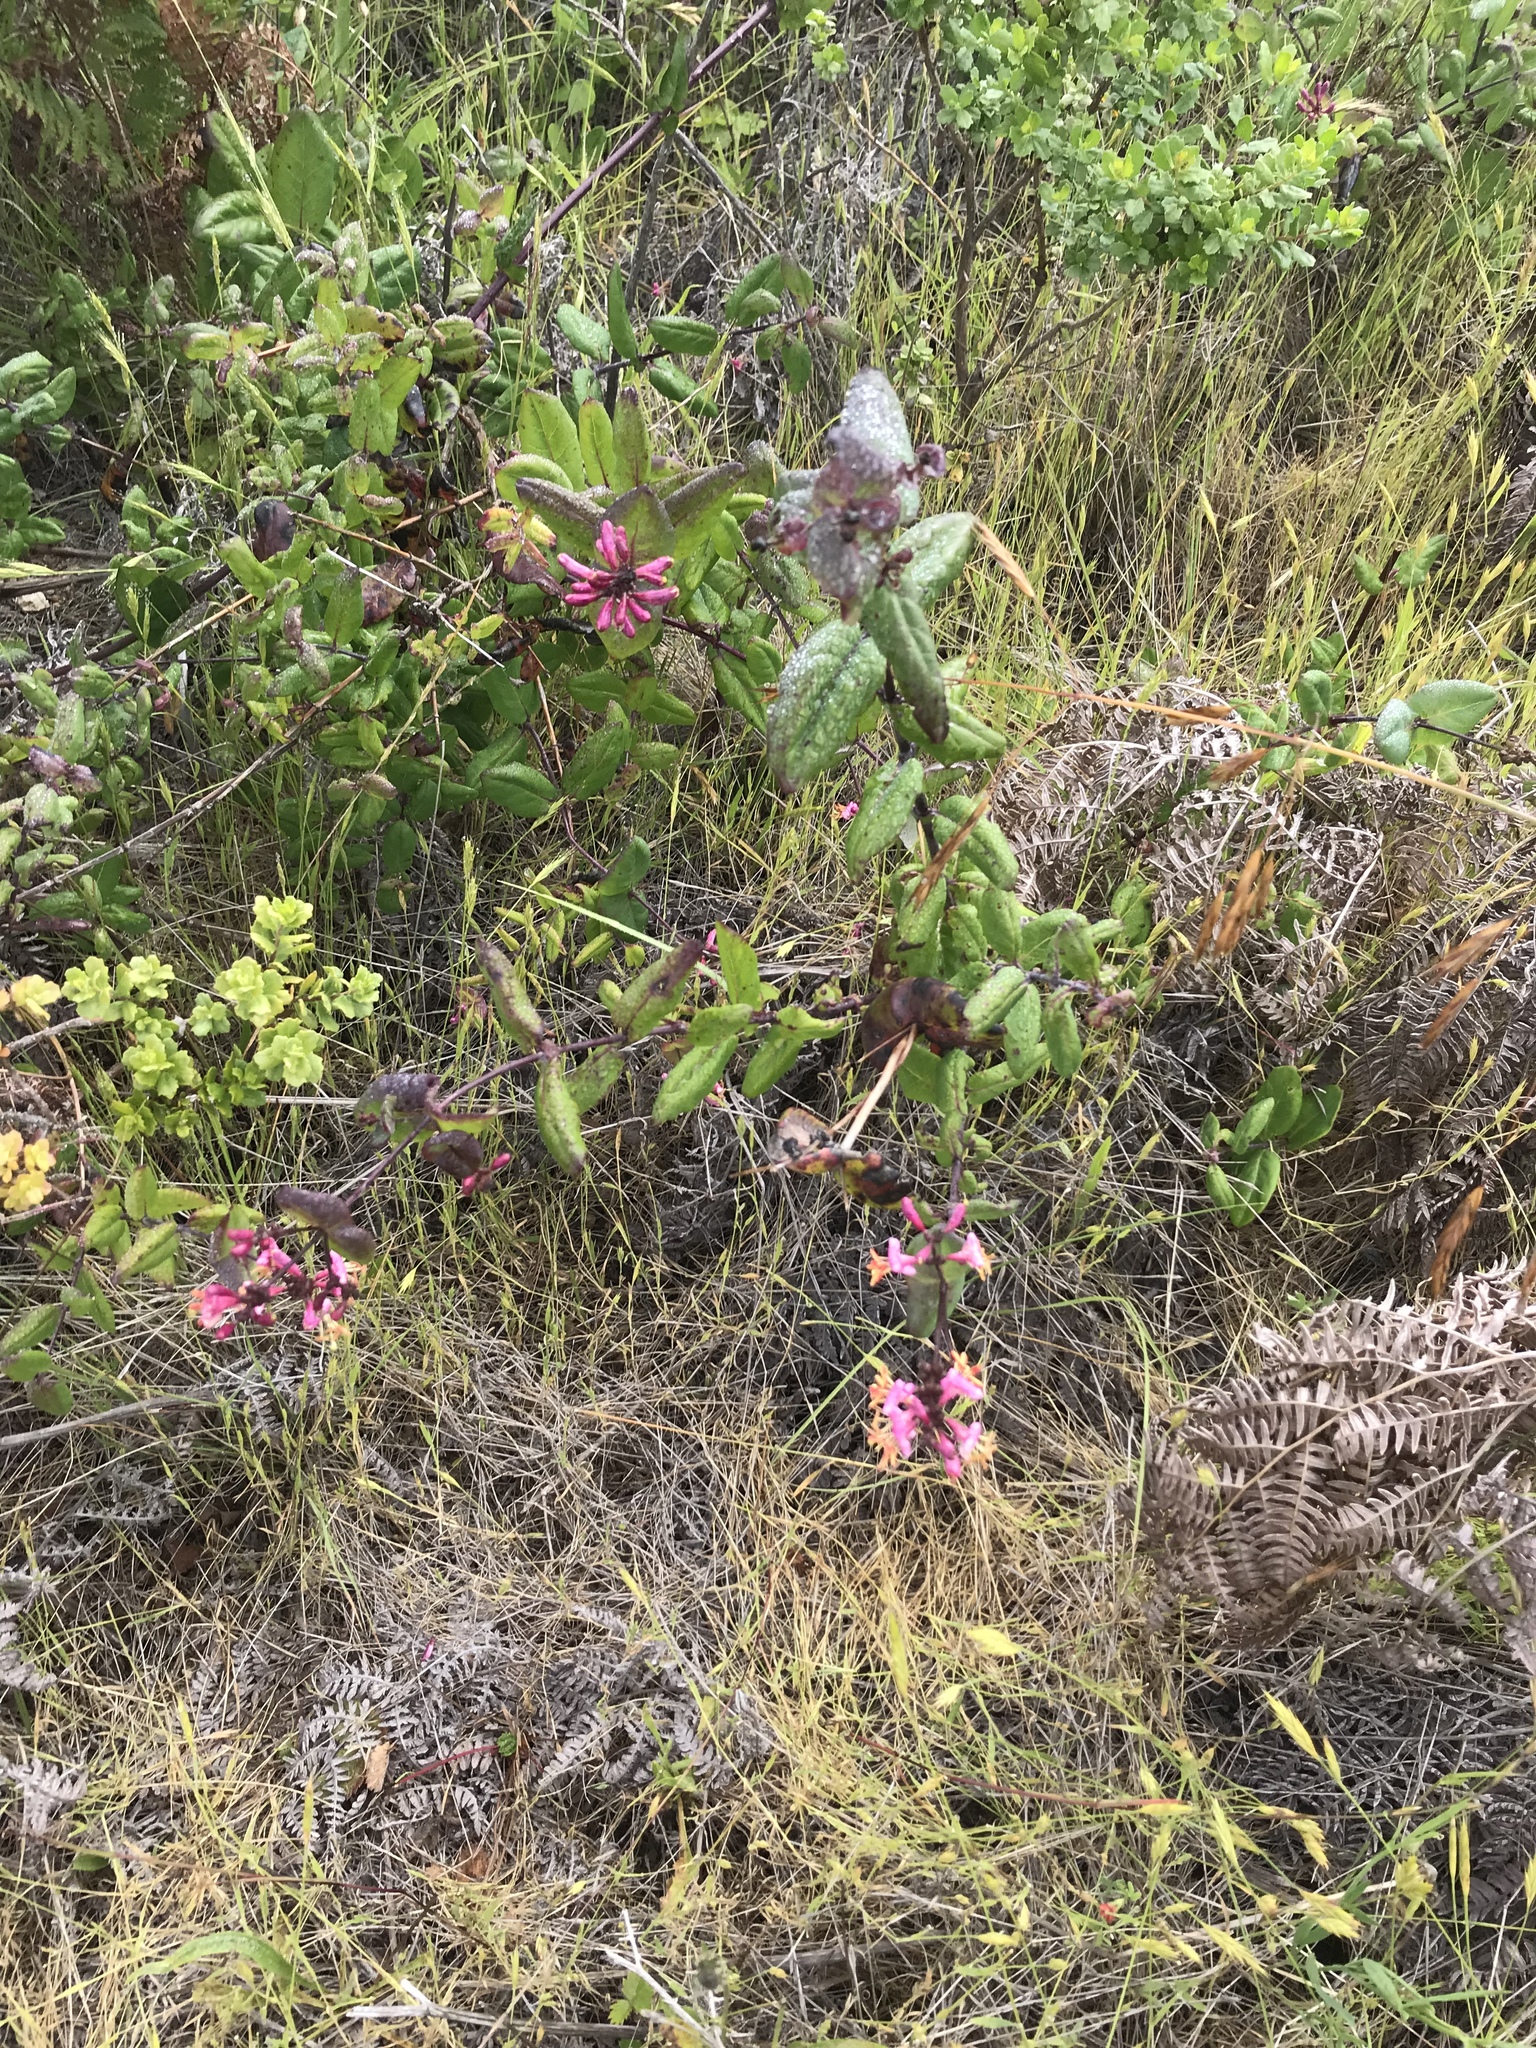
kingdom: Plantae
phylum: Tracheophyta
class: Magnoliopsida
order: Dipsacales
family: Caprifoliaceae
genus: Lonicera
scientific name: Lonicera hispidula
